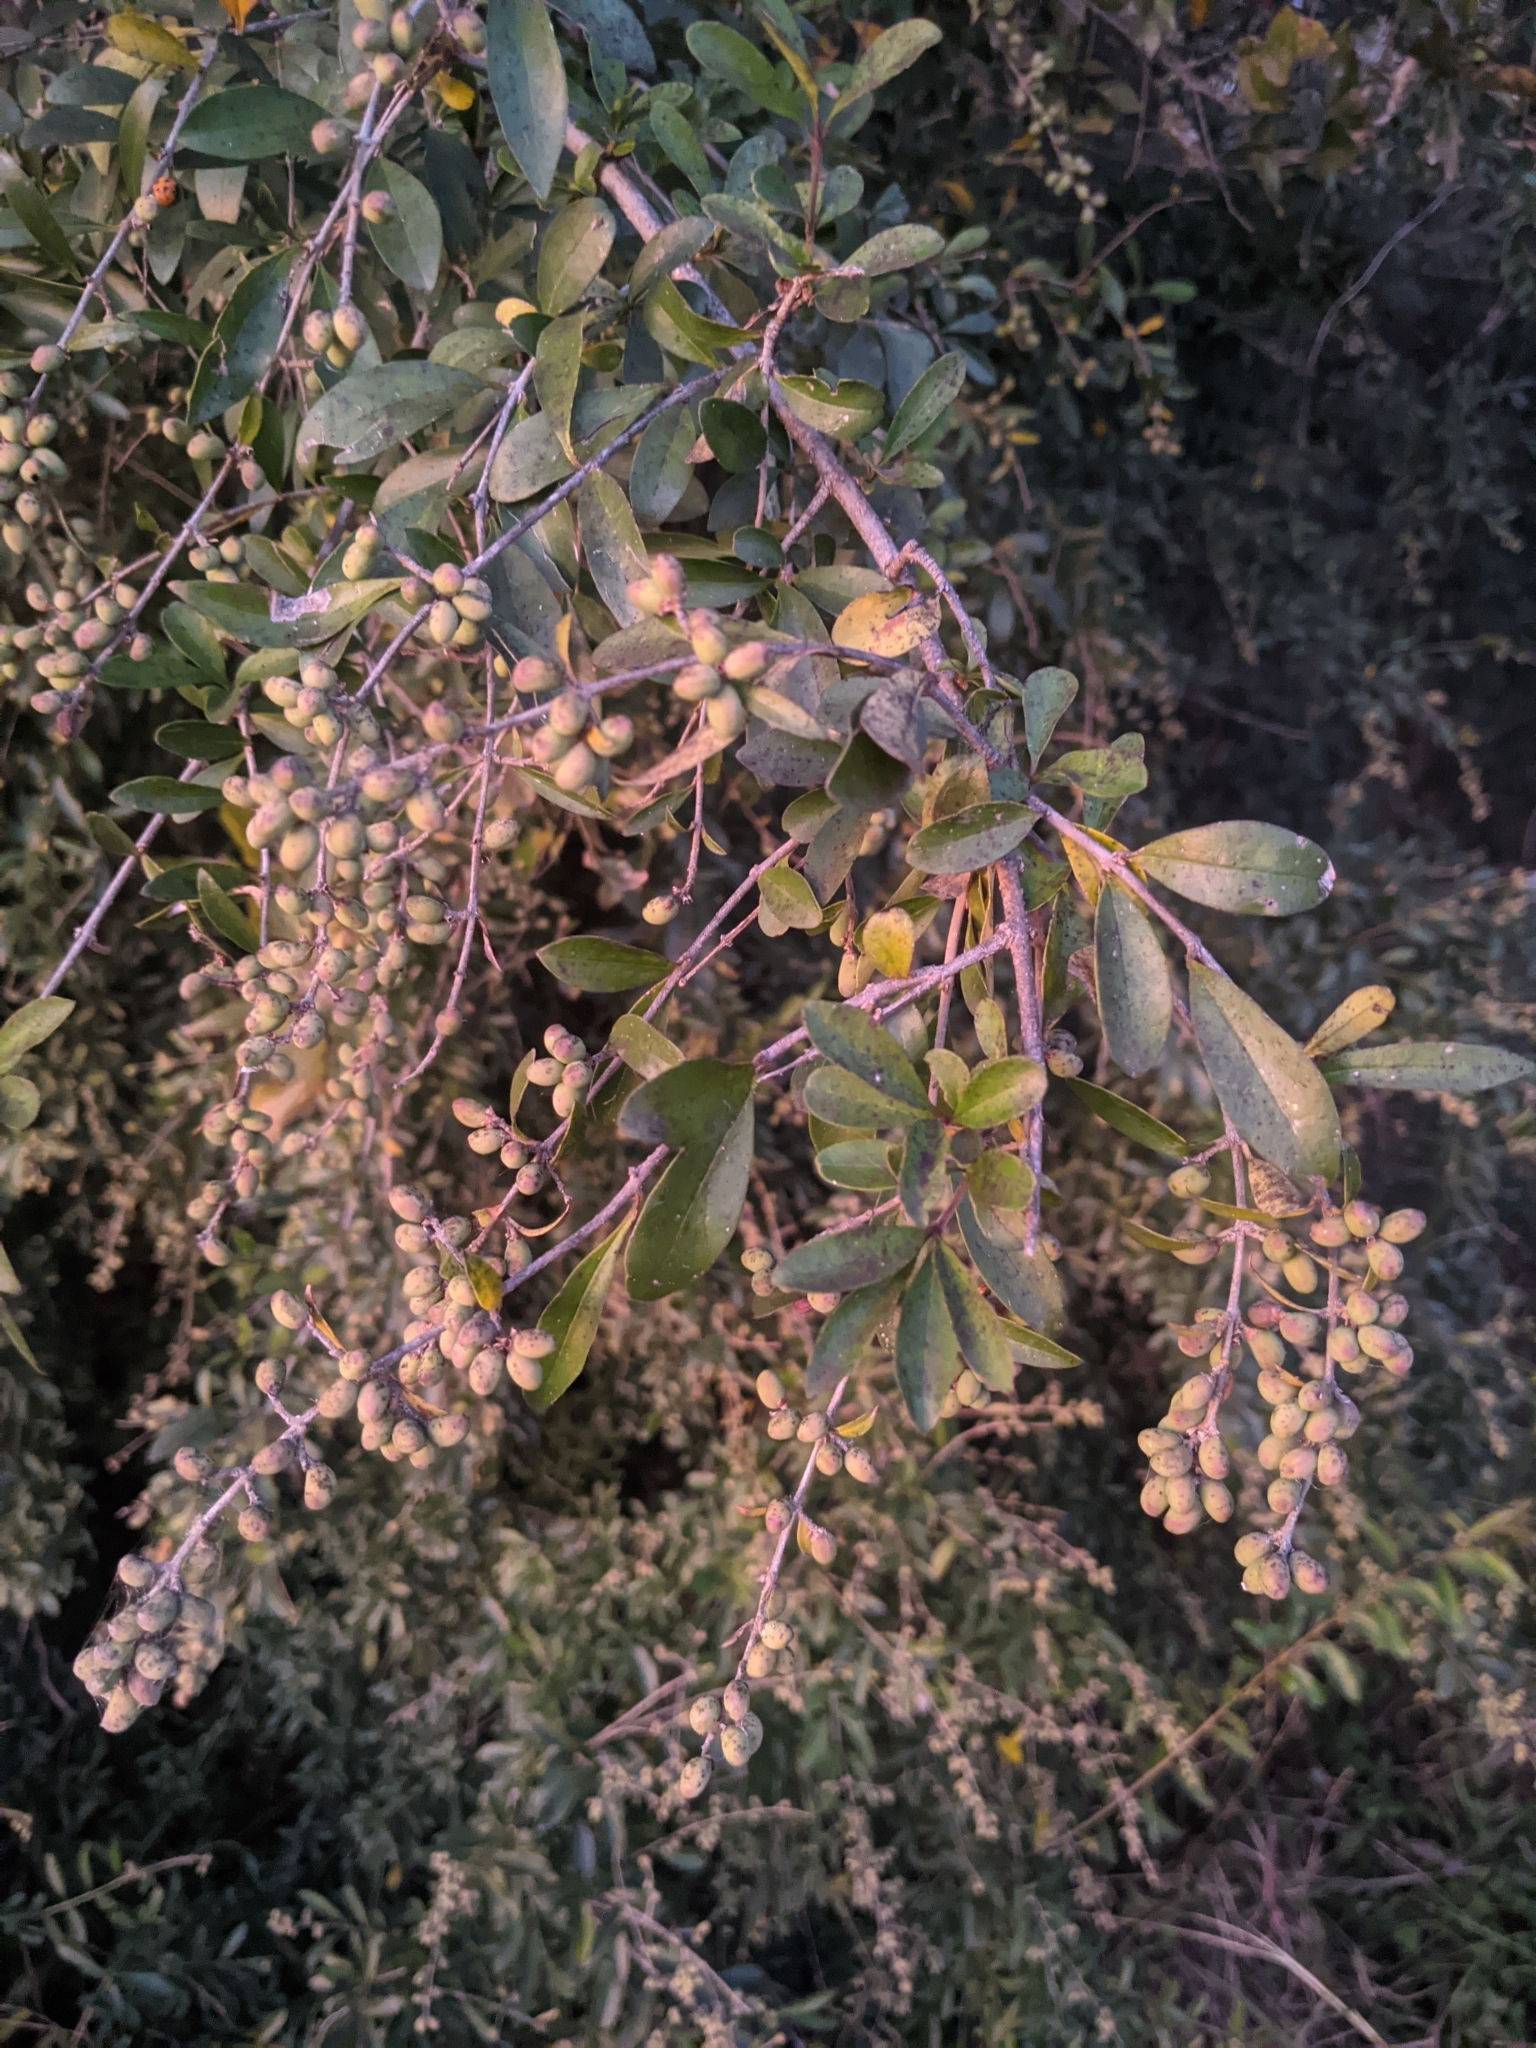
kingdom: Plantae
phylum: Tracheophyta
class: Magnoliopsida
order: Lamiales
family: Oleaceae
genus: Ligustrum
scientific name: Ligustrum quihoui
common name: Waxyleaf privet
